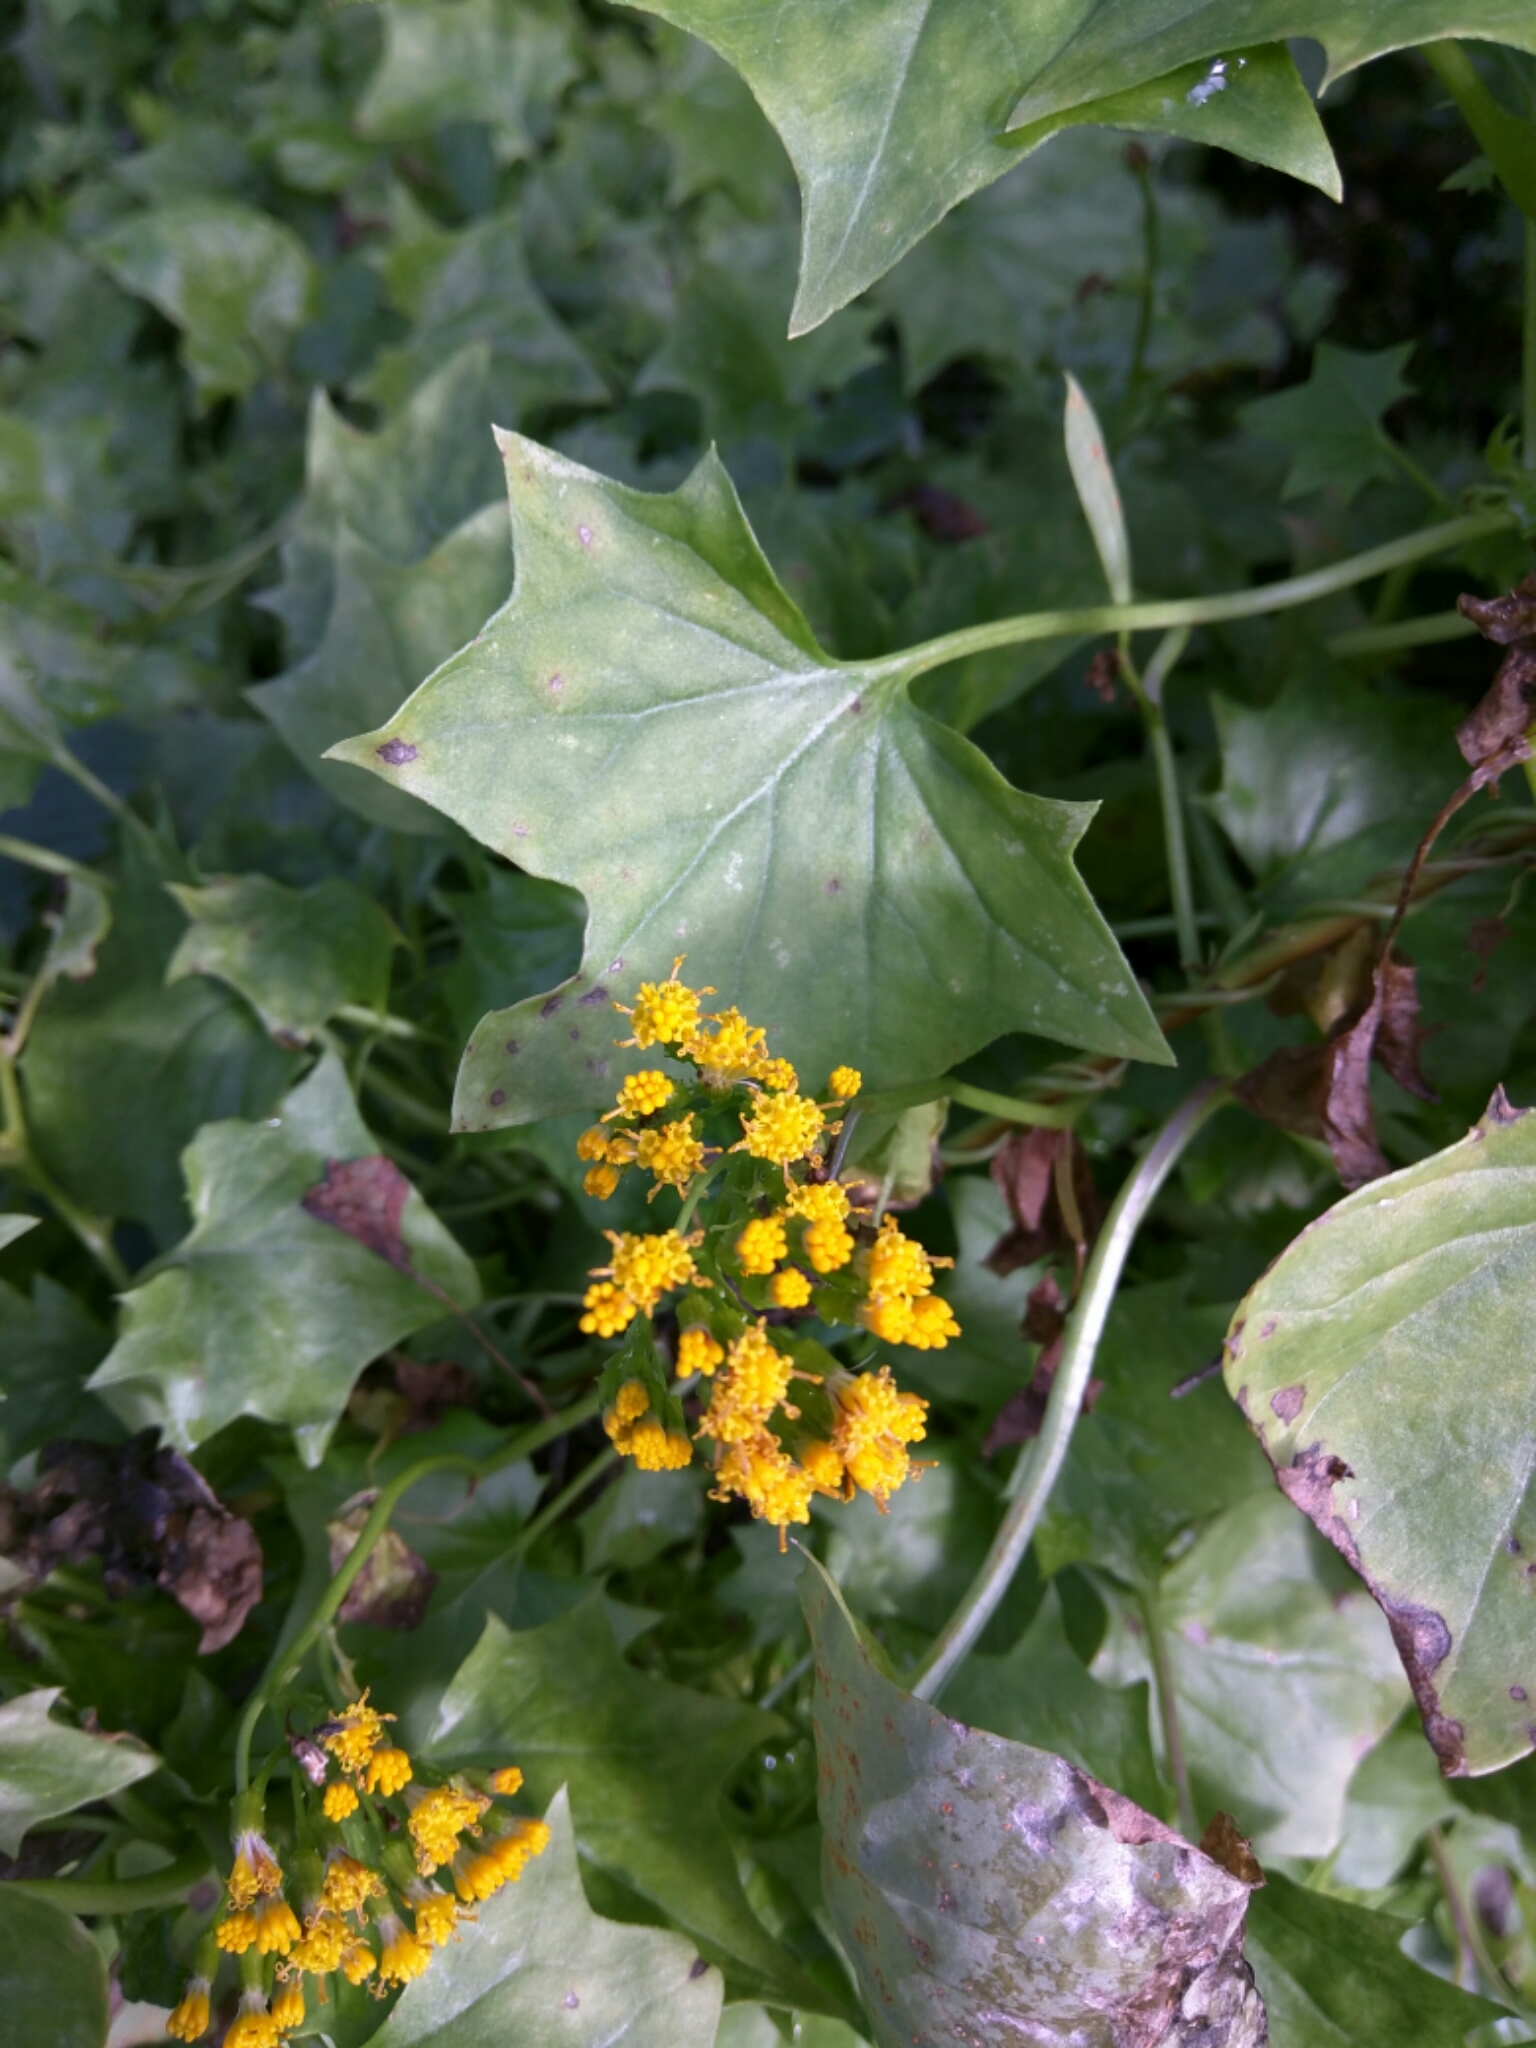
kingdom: Plantae
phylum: Tracheophyta
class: Magnoliopsida
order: Asterales
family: Asteraceae
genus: Delairea
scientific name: Delairea odorata
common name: Cape-ivy
